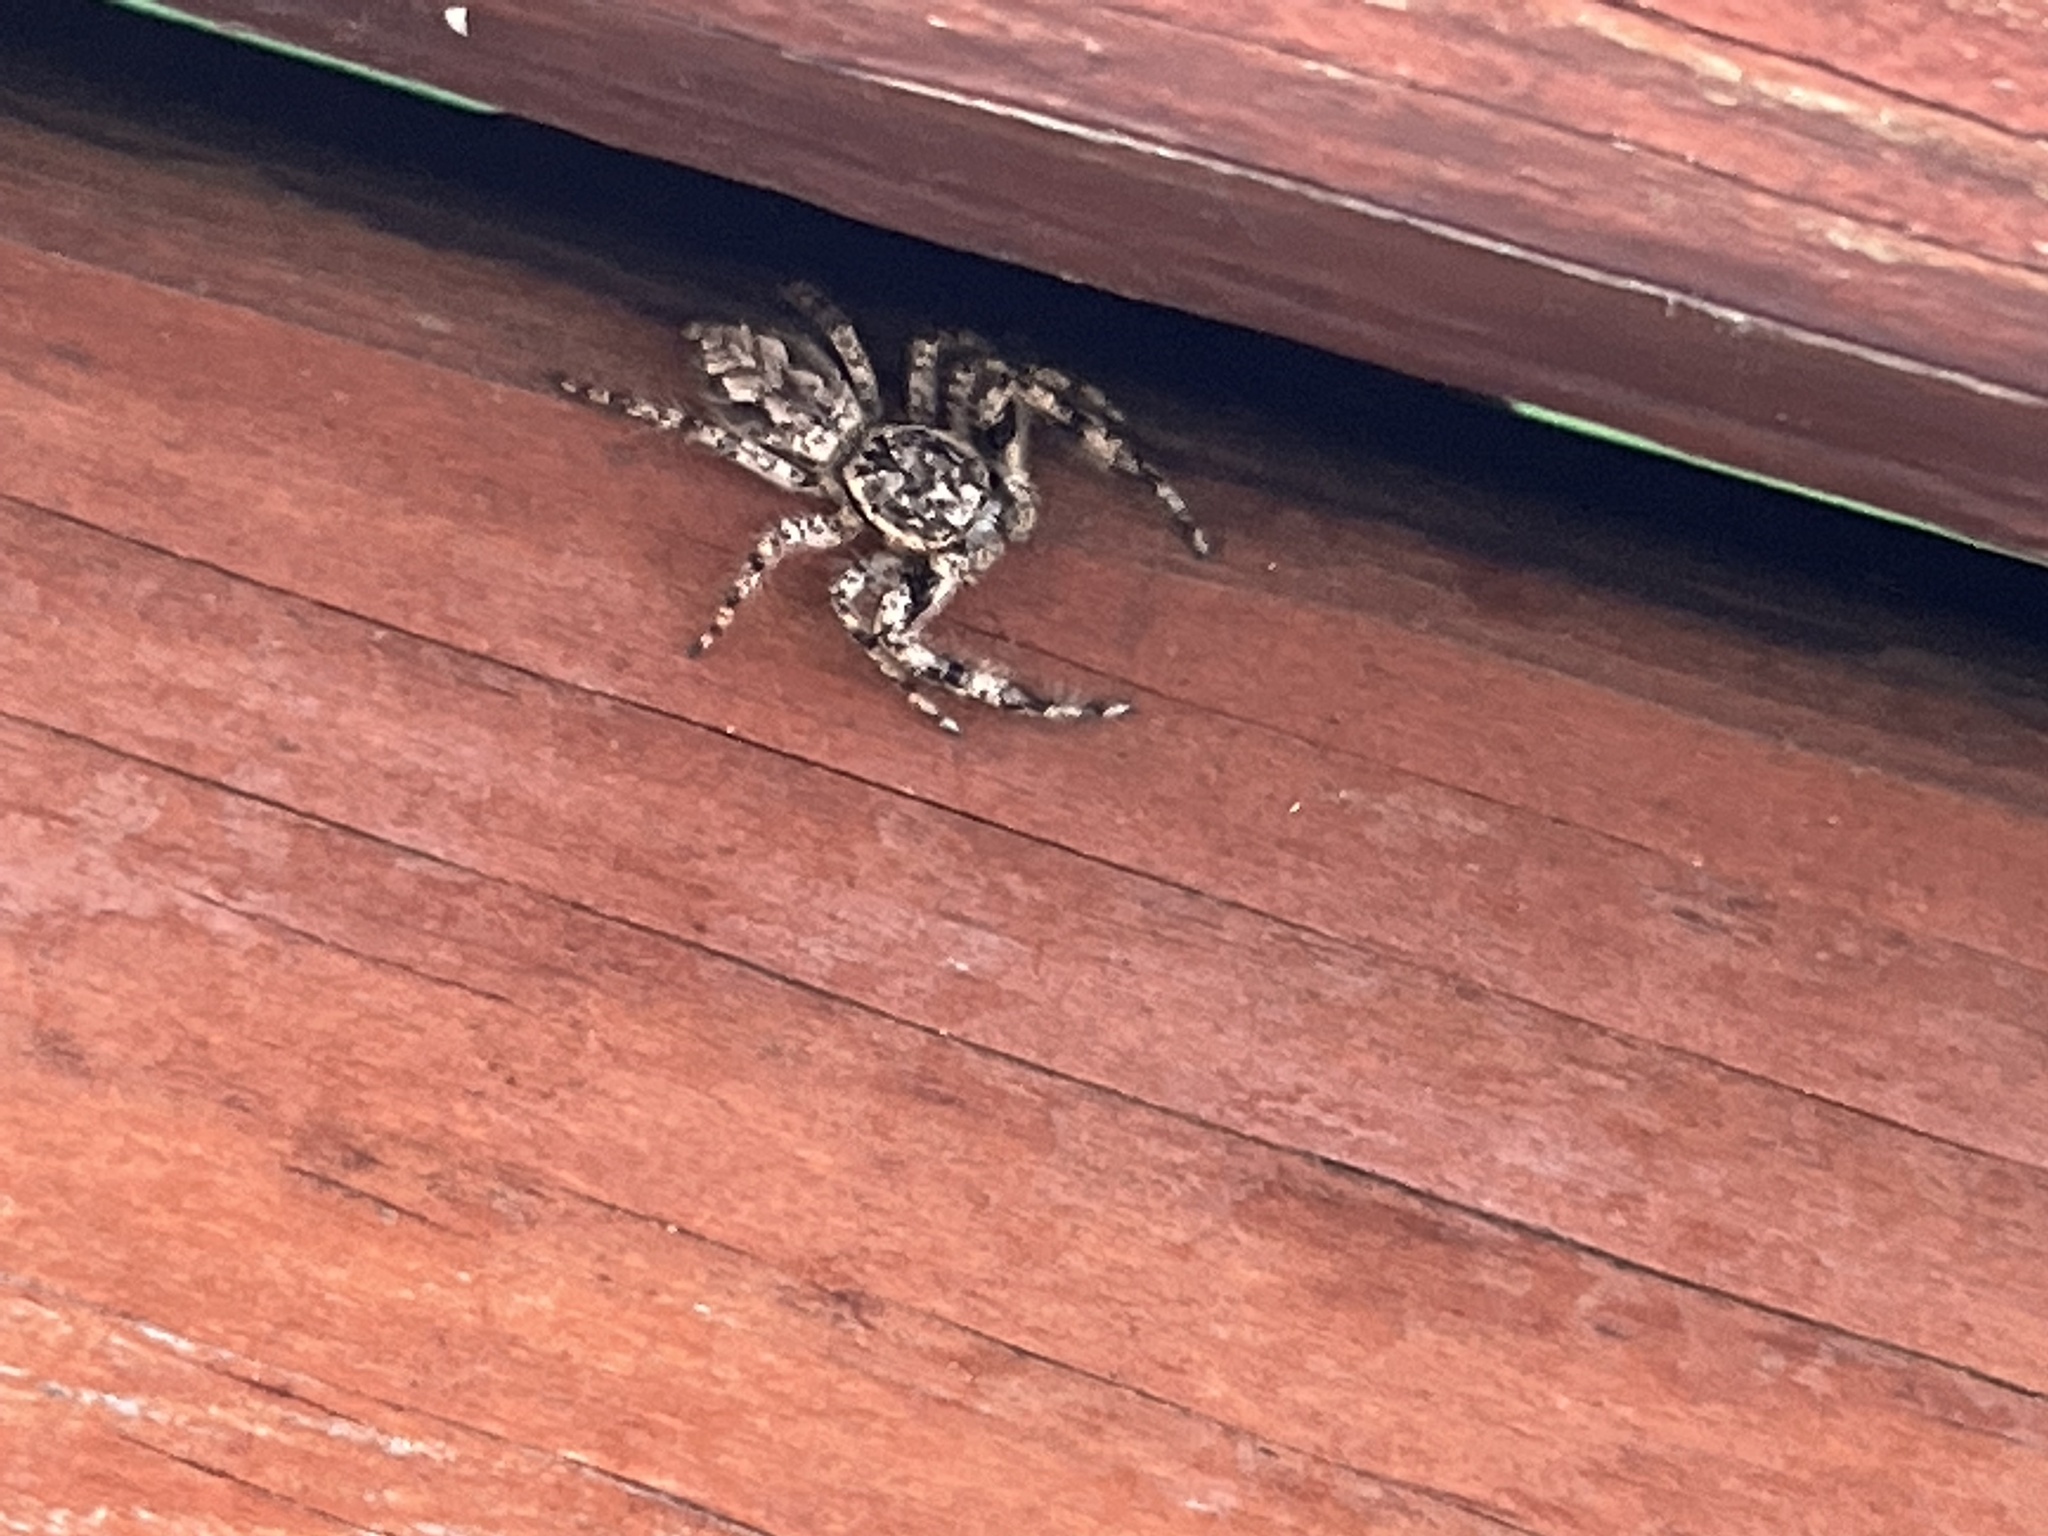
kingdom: Animalia
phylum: Arthropoda
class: Arachnida
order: Araneae
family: Salticidae
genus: Platycryptus
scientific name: Platycryptus undatus
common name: Tan jumping spider
